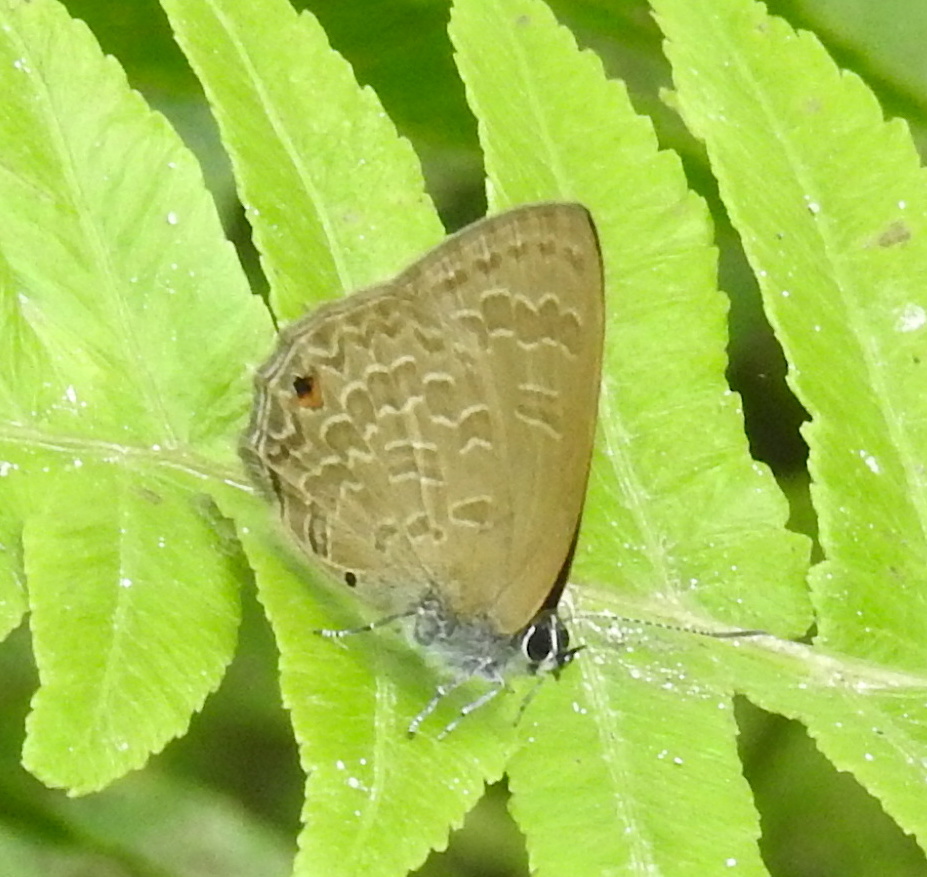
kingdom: Animalia
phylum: Arthropoda
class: Insecta
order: Lepidoptera
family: Lycaenidae
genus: Anthene
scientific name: Anthene emolus
